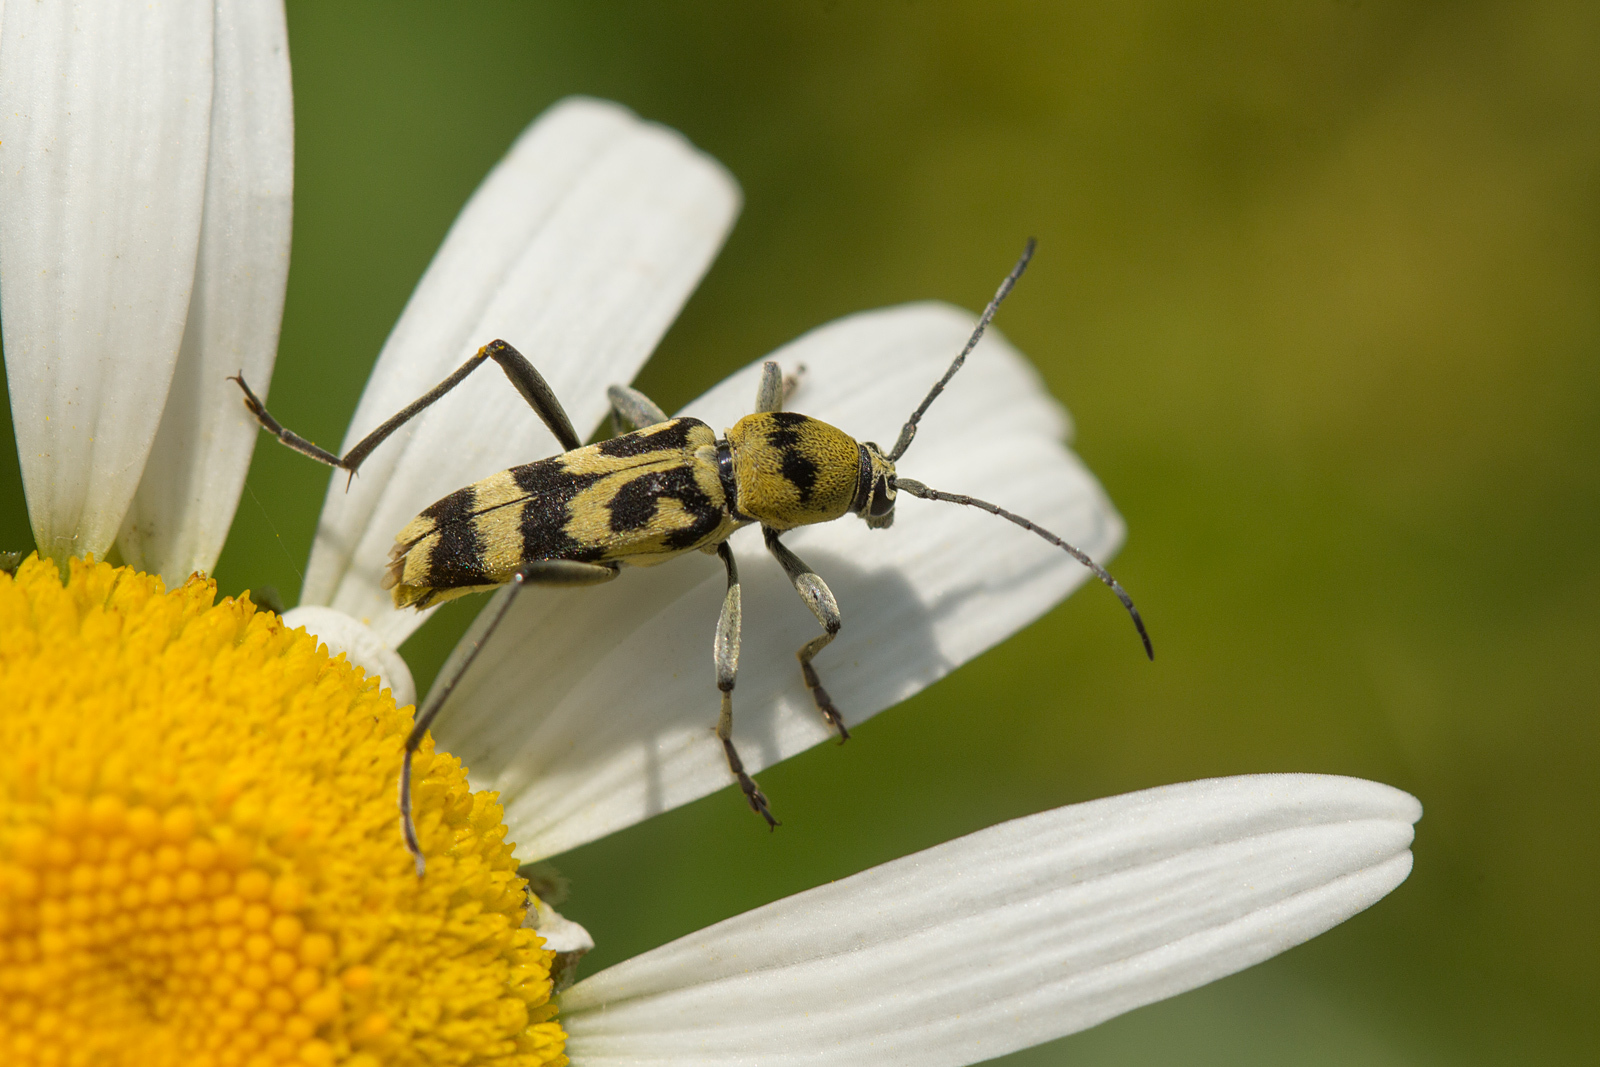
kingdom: Animalia
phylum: Arthropoda
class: Insecta
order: Coleoptera
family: Cerambycidae
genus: Chlorophorus
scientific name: Chlorophorus varius
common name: Grape wood borer
